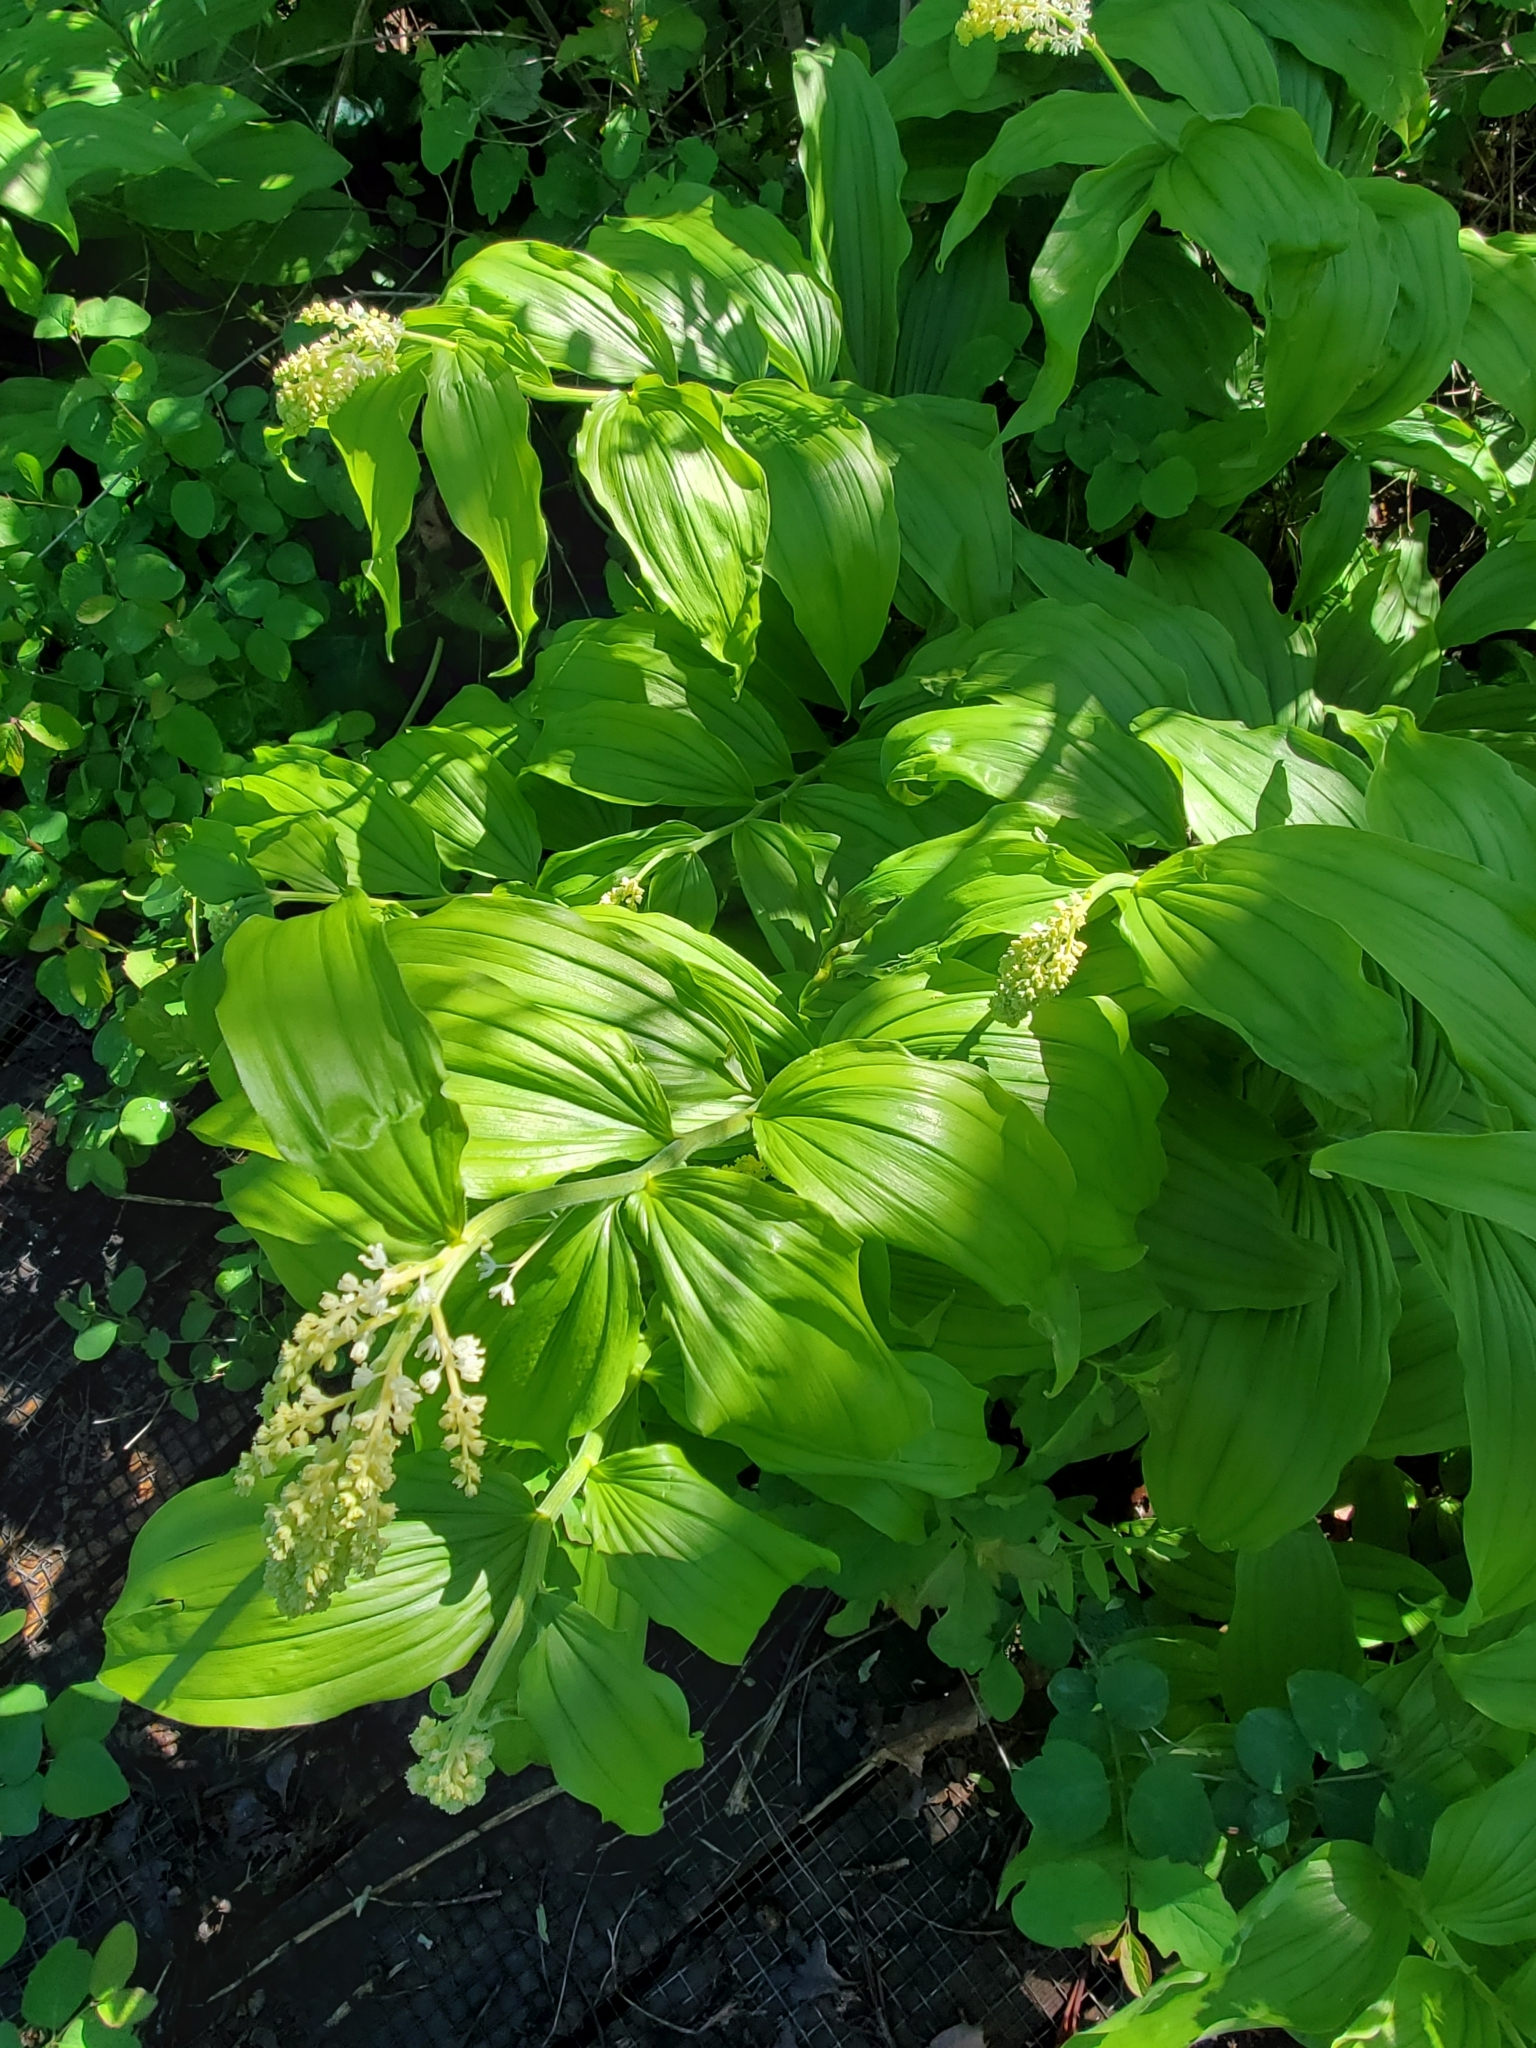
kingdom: Plantae
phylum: Tracheophyta
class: Liliopsida
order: Asparagales
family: Asparagaceae
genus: Maianthemum
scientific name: Maianthemum racemosum
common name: False spikenard
